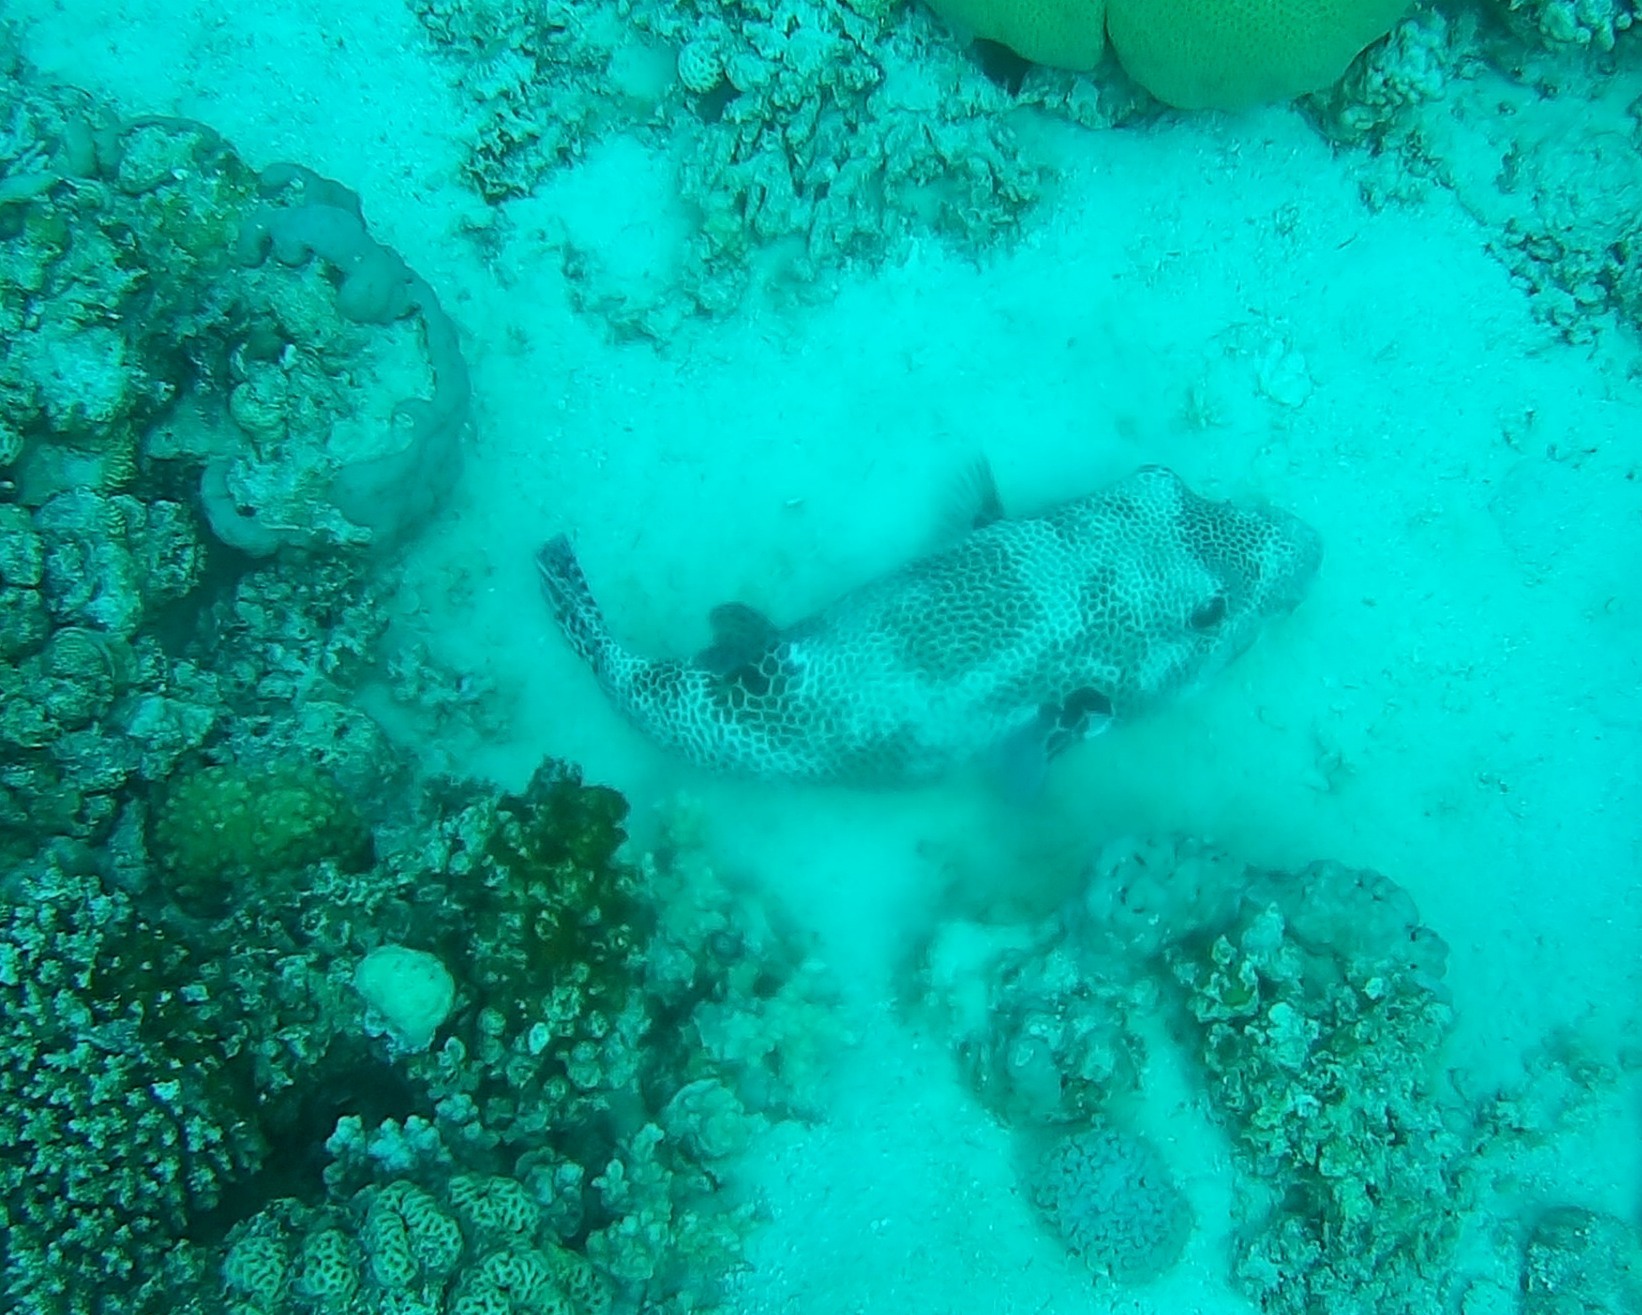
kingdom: Animalia
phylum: Chordata
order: Tetraodontiformes
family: Tetraodontidae
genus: Arothron
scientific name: Arothron stellatus
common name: Star blaasop
